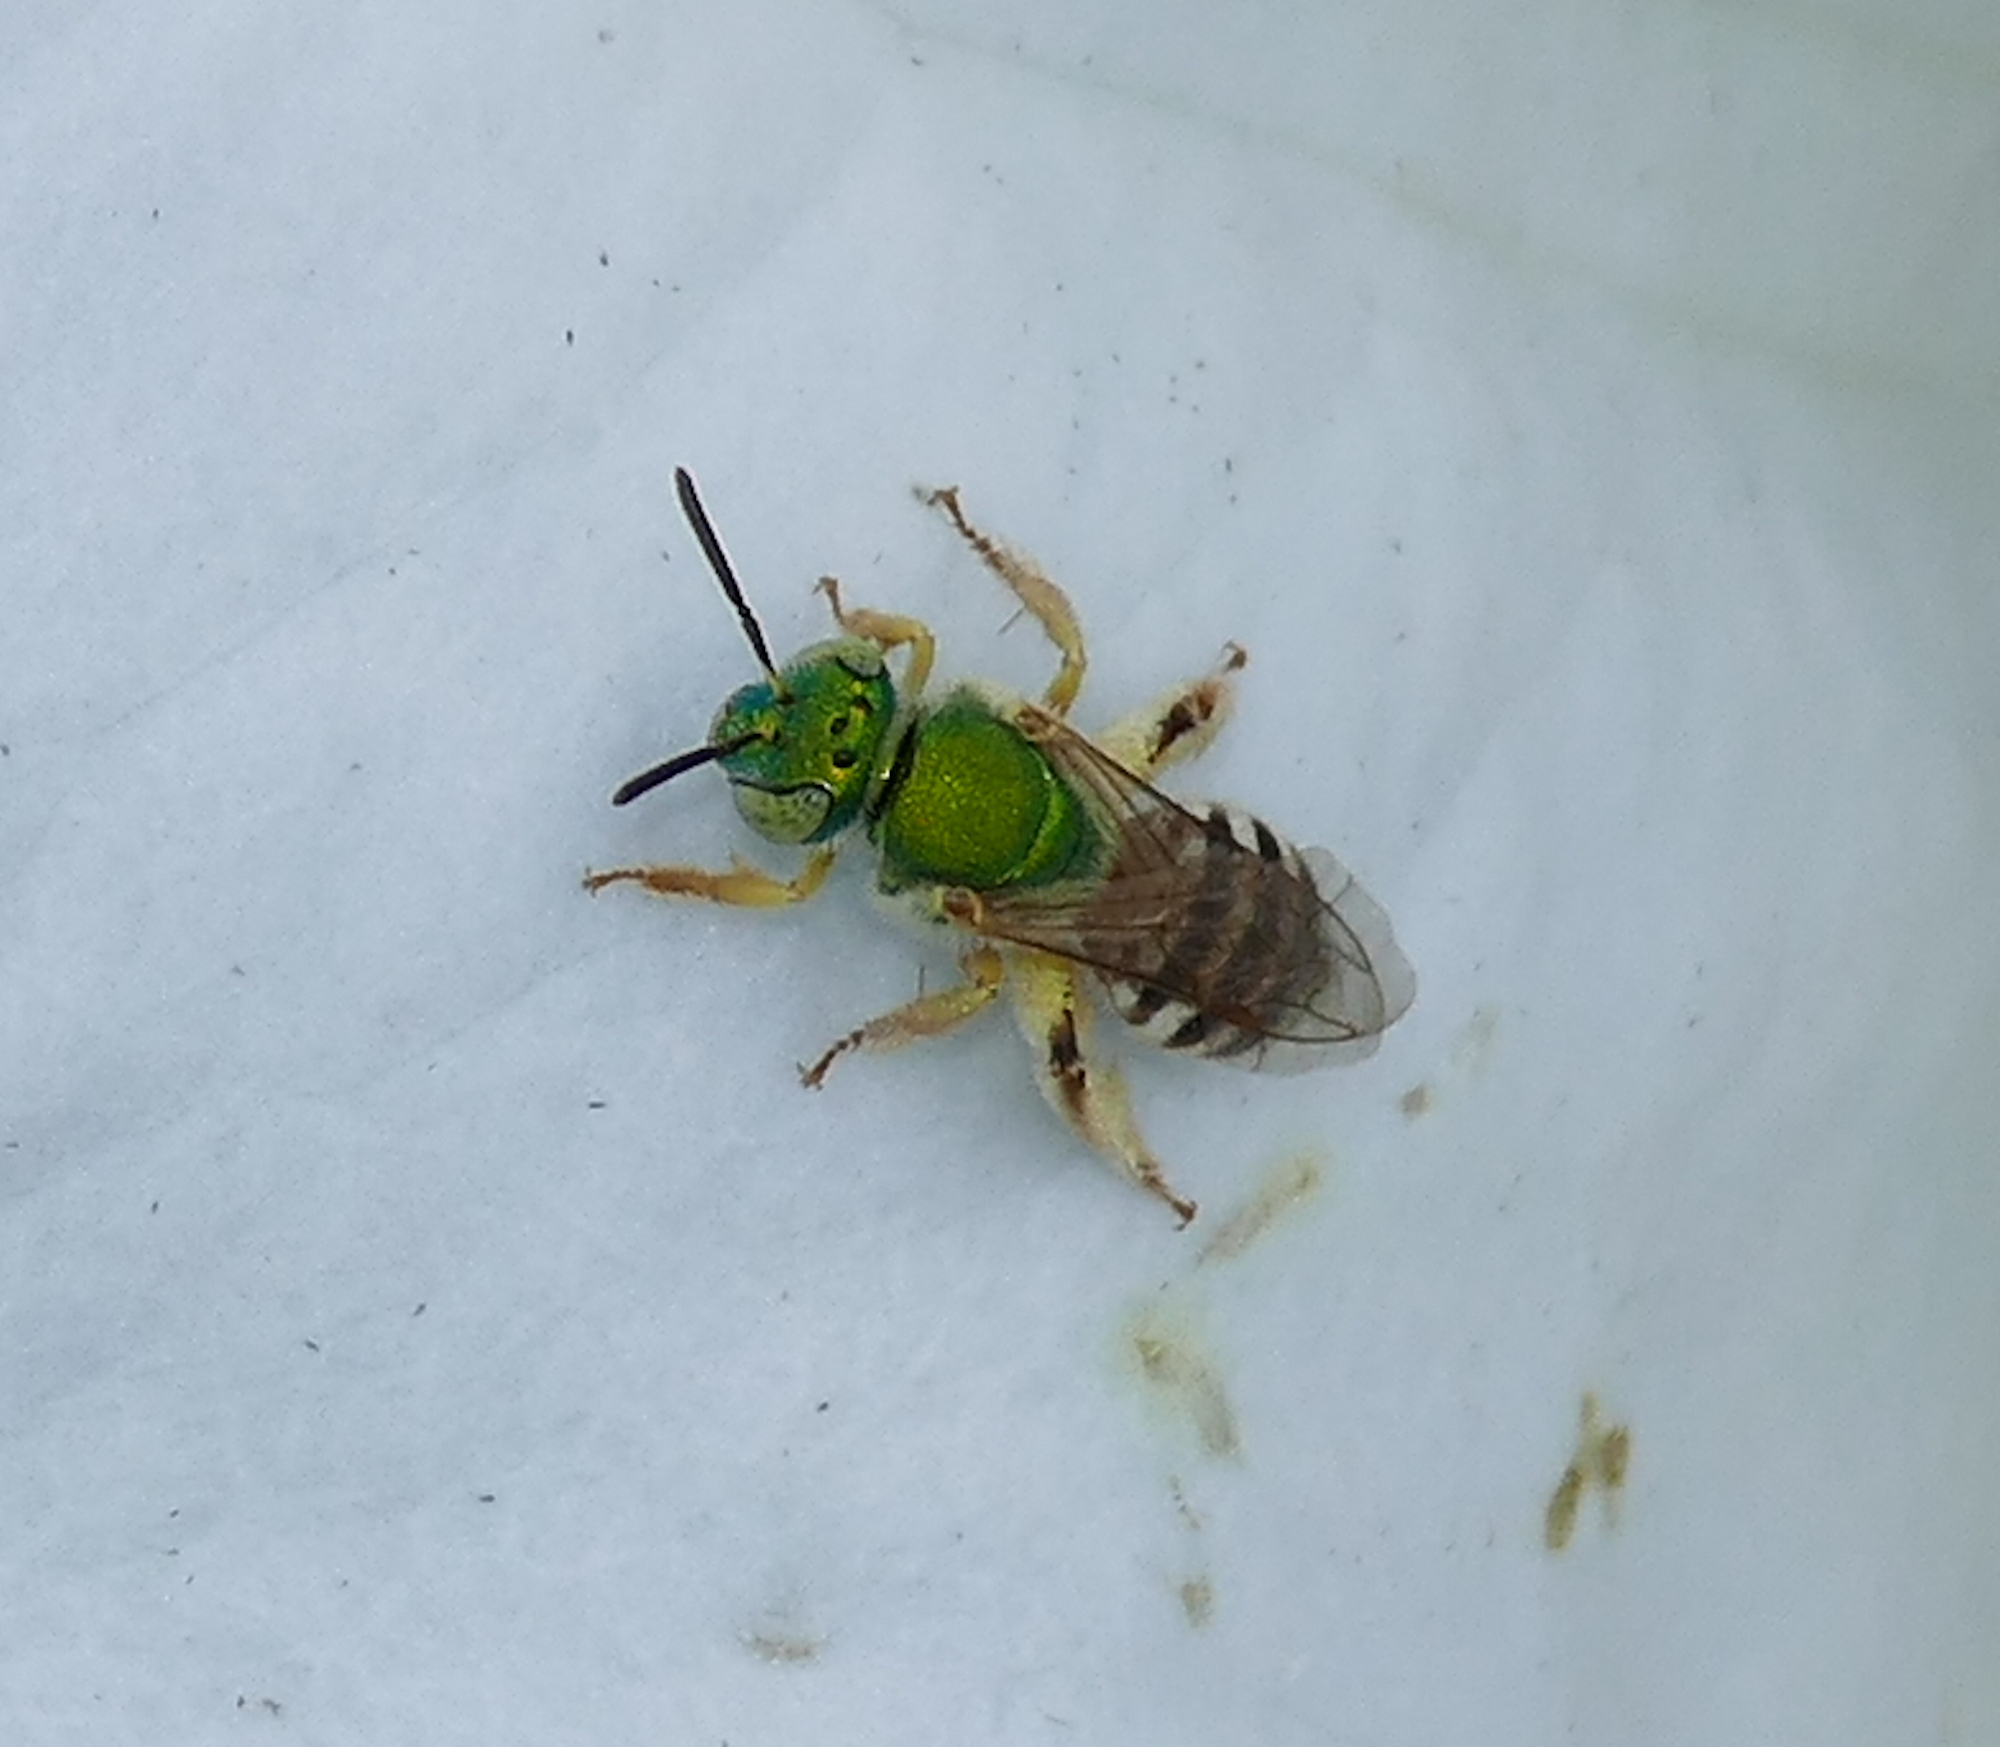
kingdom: Animalia
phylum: Arthropoda
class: Insecta
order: Hymenoptera
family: Halictidae
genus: Agapostemon
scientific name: Agapostemon melliventris
